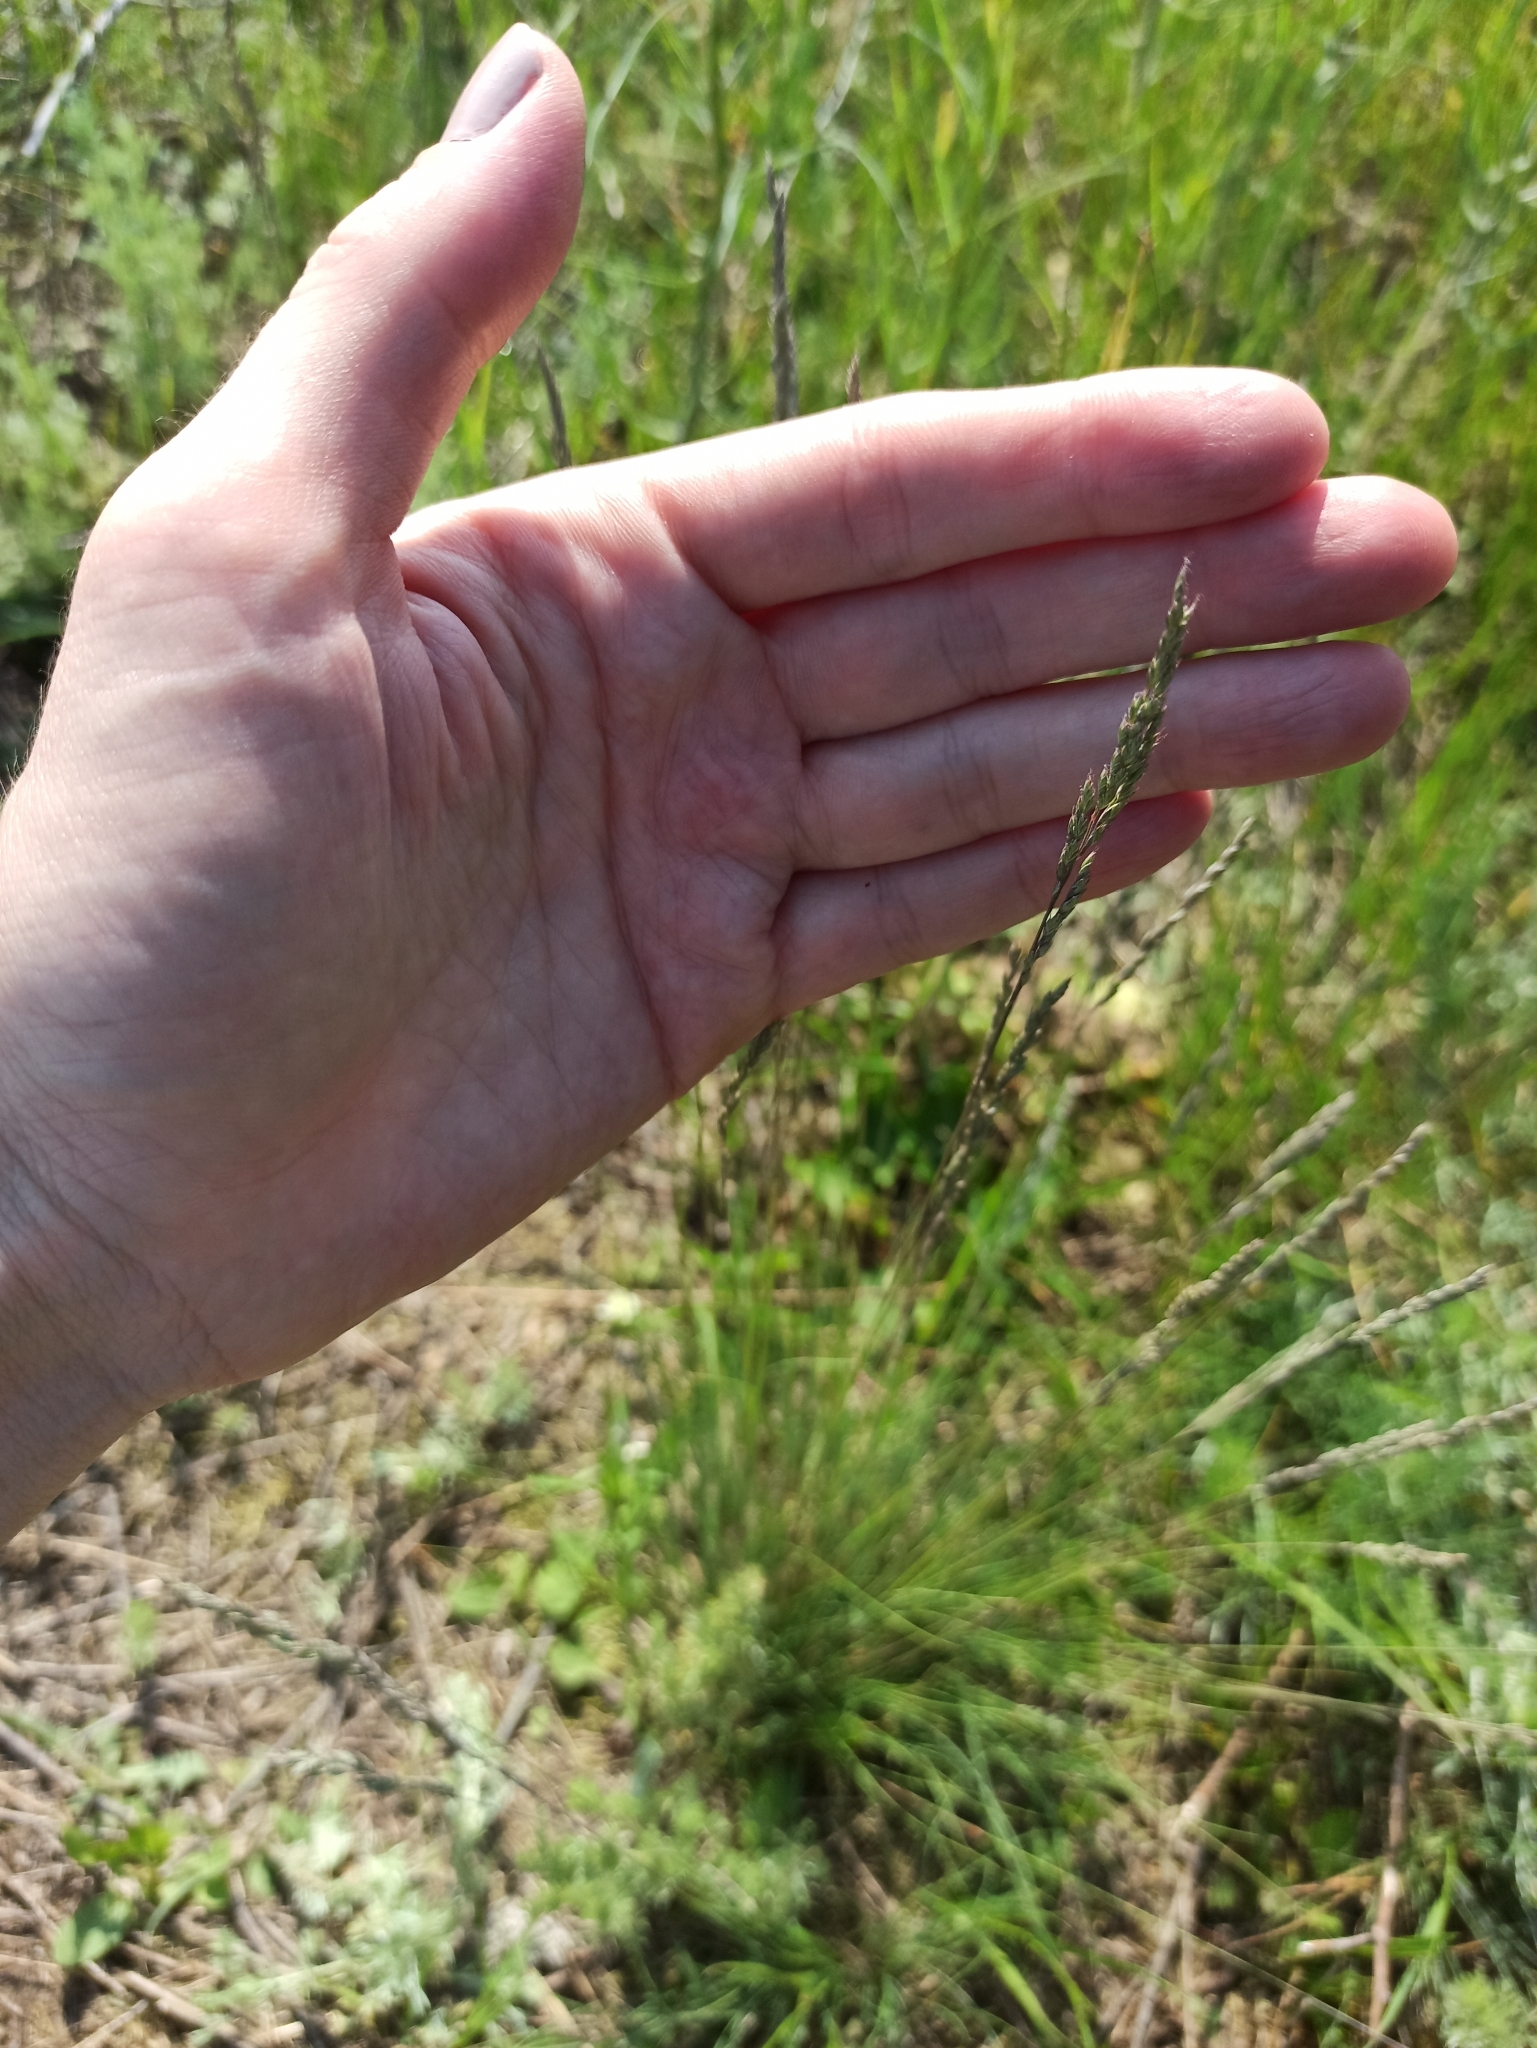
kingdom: Plantae
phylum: Tracheophyta
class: Liliopsida
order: Poales
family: Poaceae
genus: Molinia
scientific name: Molinia caerulea
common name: Purple moor-grass
